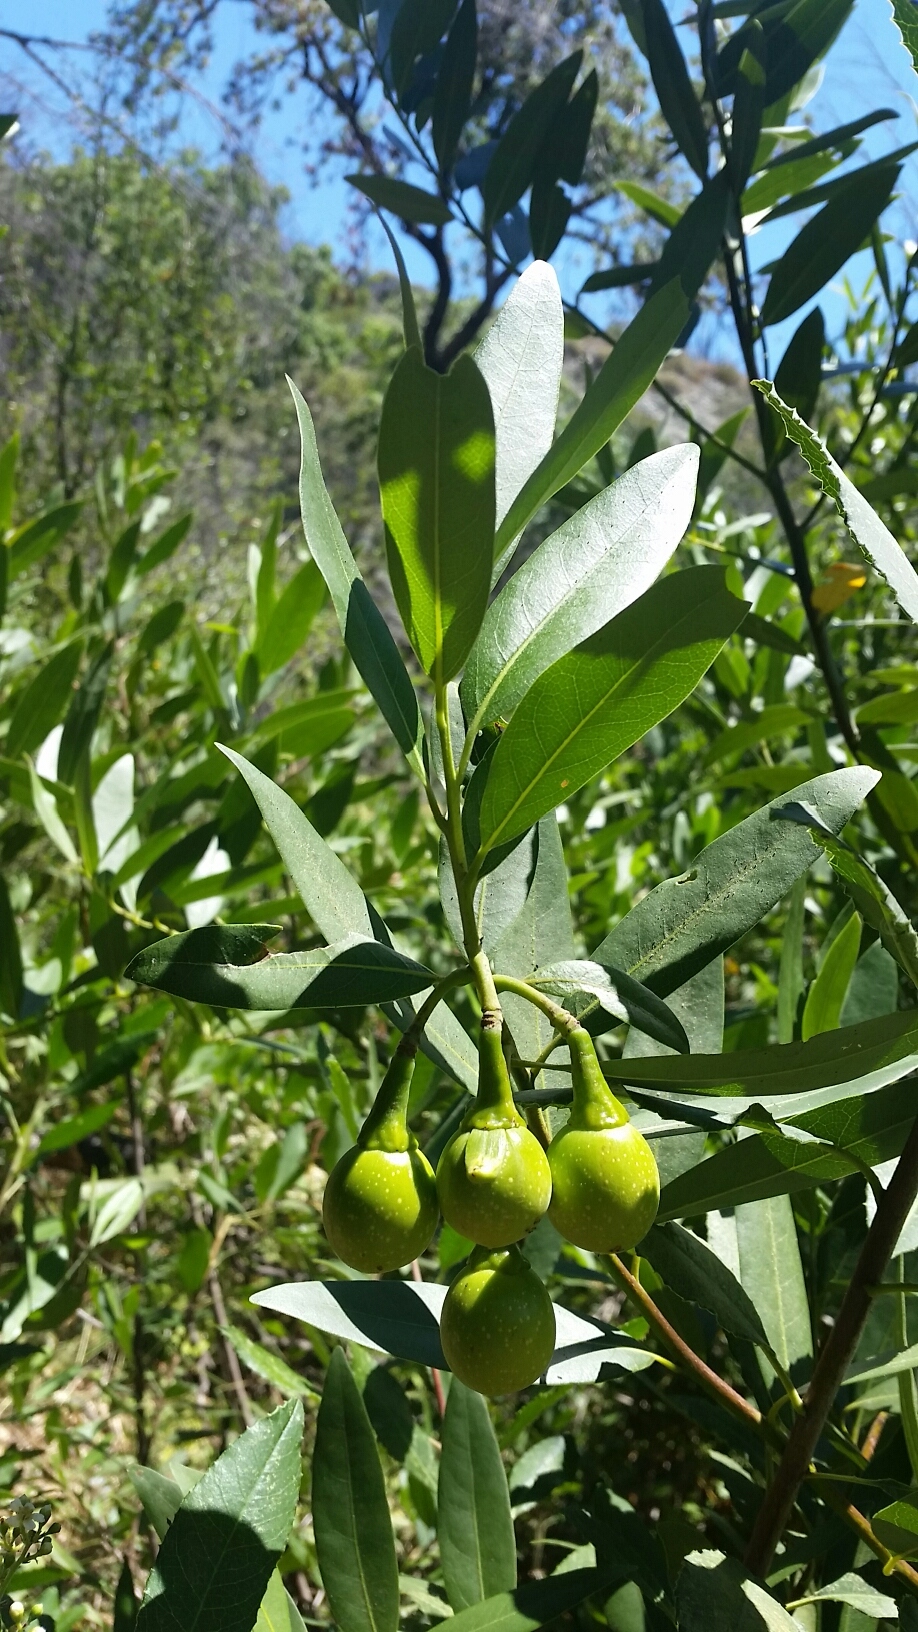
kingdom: Plantae
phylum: Tracheophyta
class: Magnoliopsida
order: Laurales
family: Lauraceae
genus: Umbellularia
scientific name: Umbellularia californica
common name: California bay
